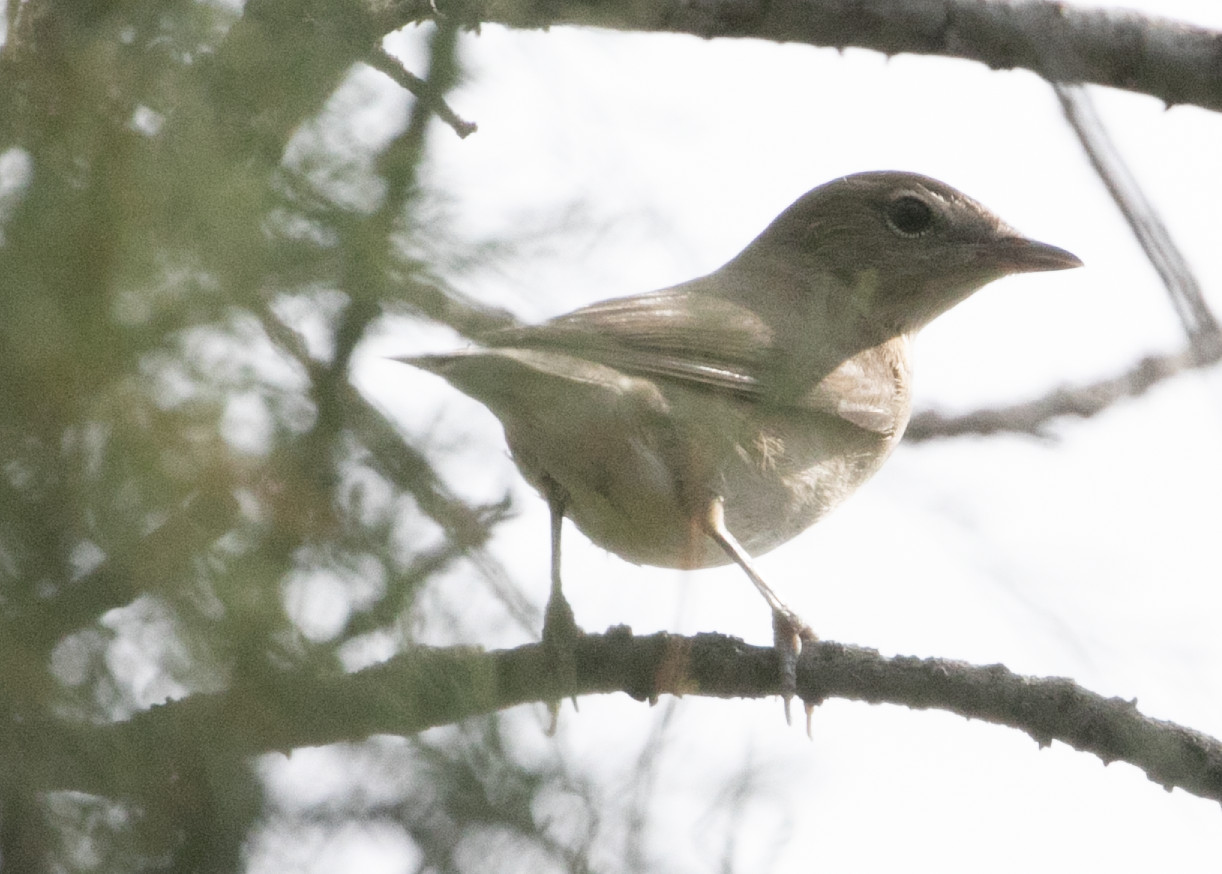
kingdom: Animalia
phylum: Chordata
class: Aves
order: Passeriformes
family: Sylviidae
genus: Sylvia
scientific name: Sylvia borin
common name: Garden warbler
